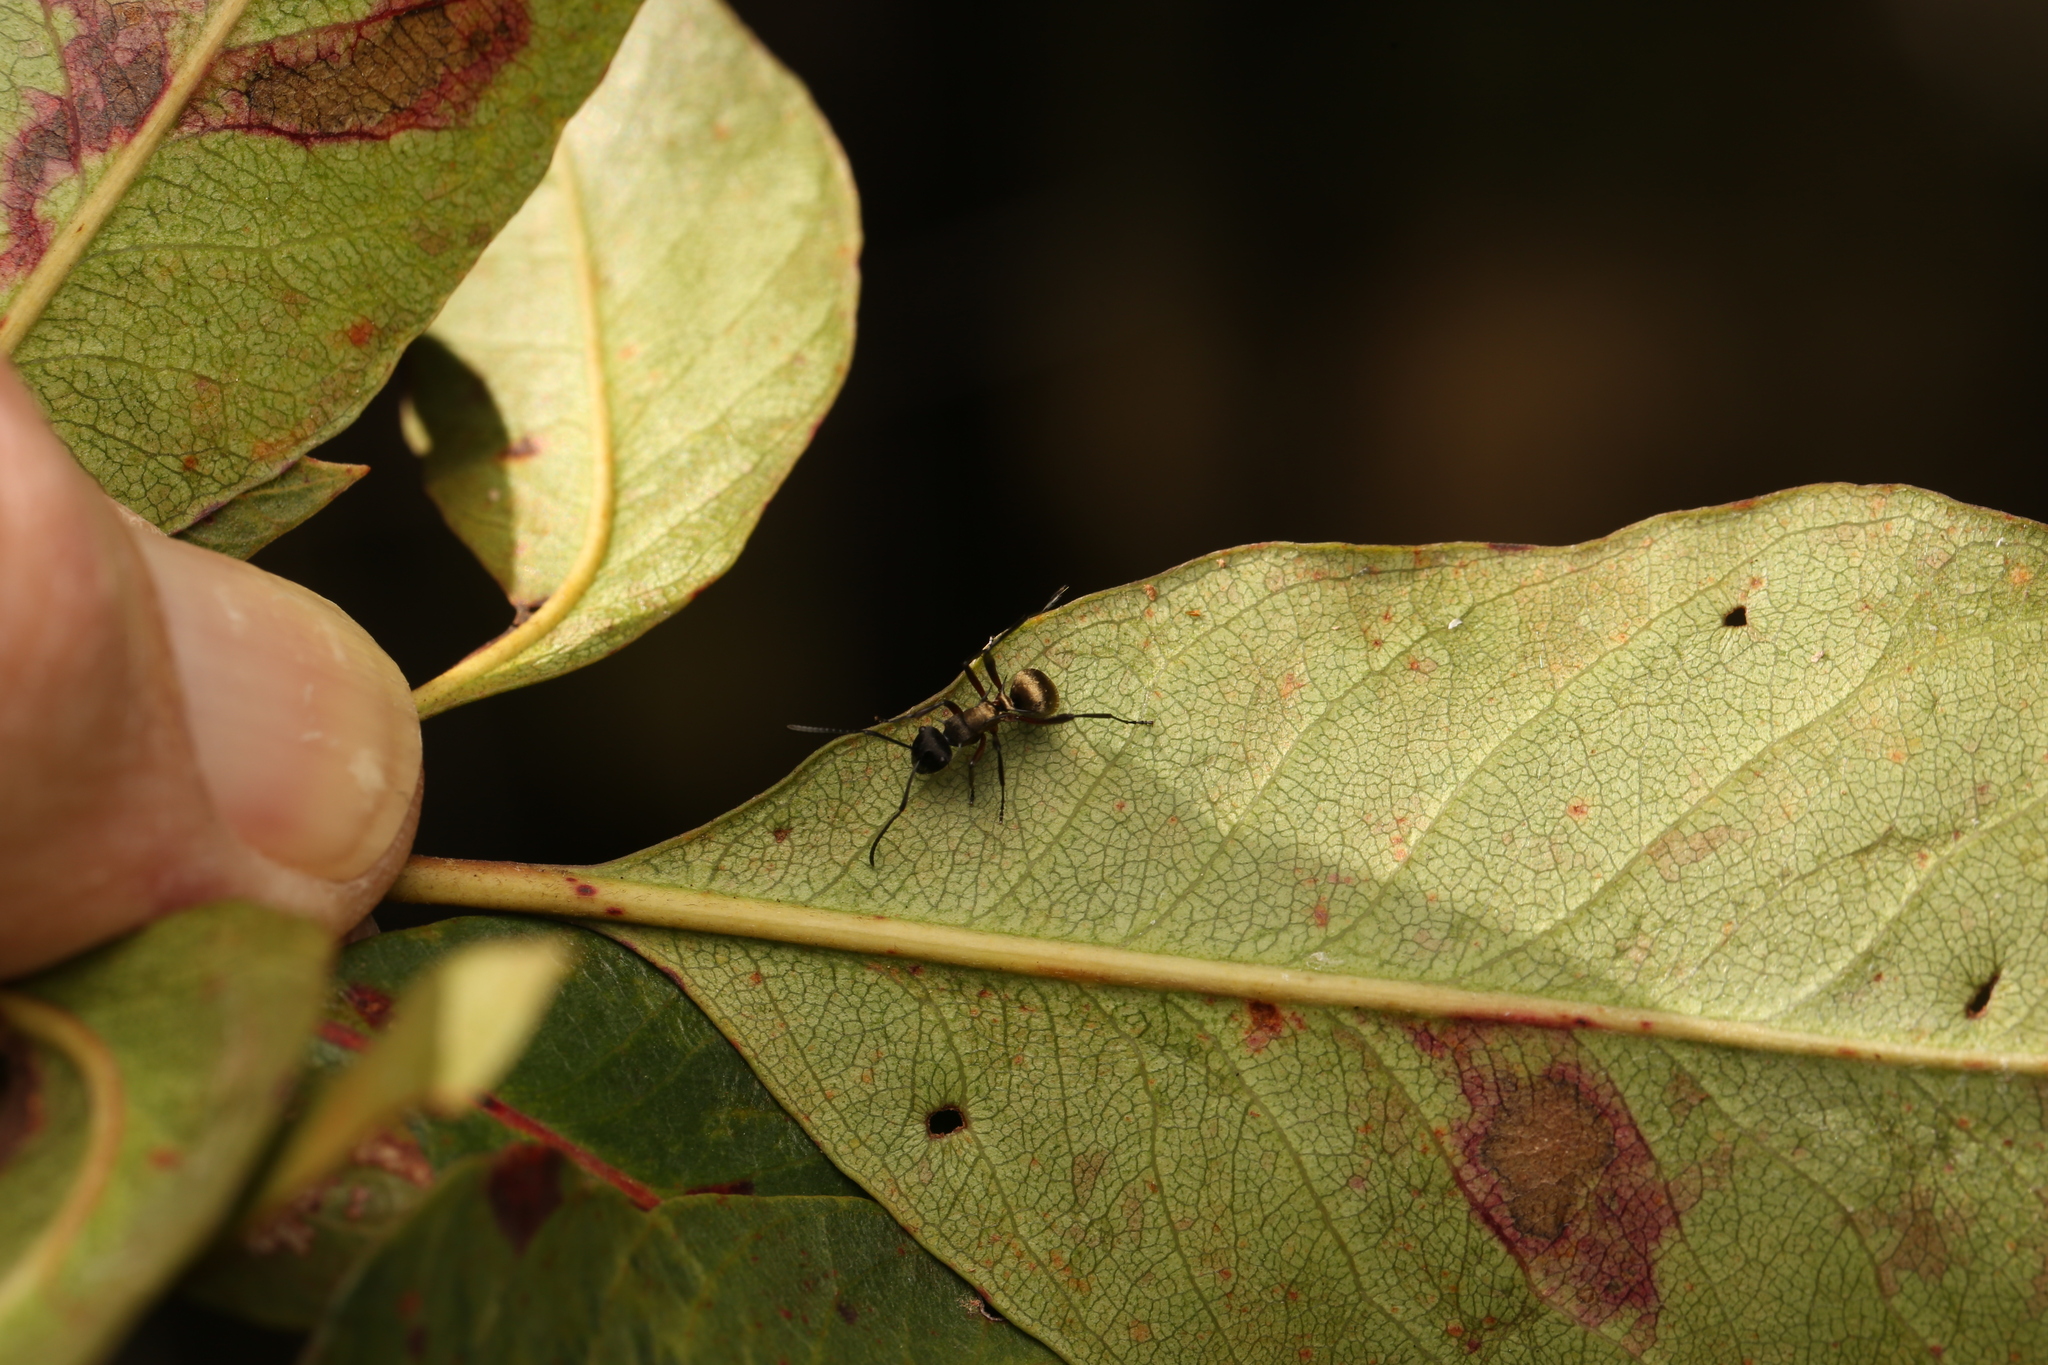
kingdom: Animalia
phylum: Arthropoda
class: Insecta
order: Hymenoptera
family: Formicidae
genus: Polyrhachis
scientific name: Polyrhachis rufifemur
